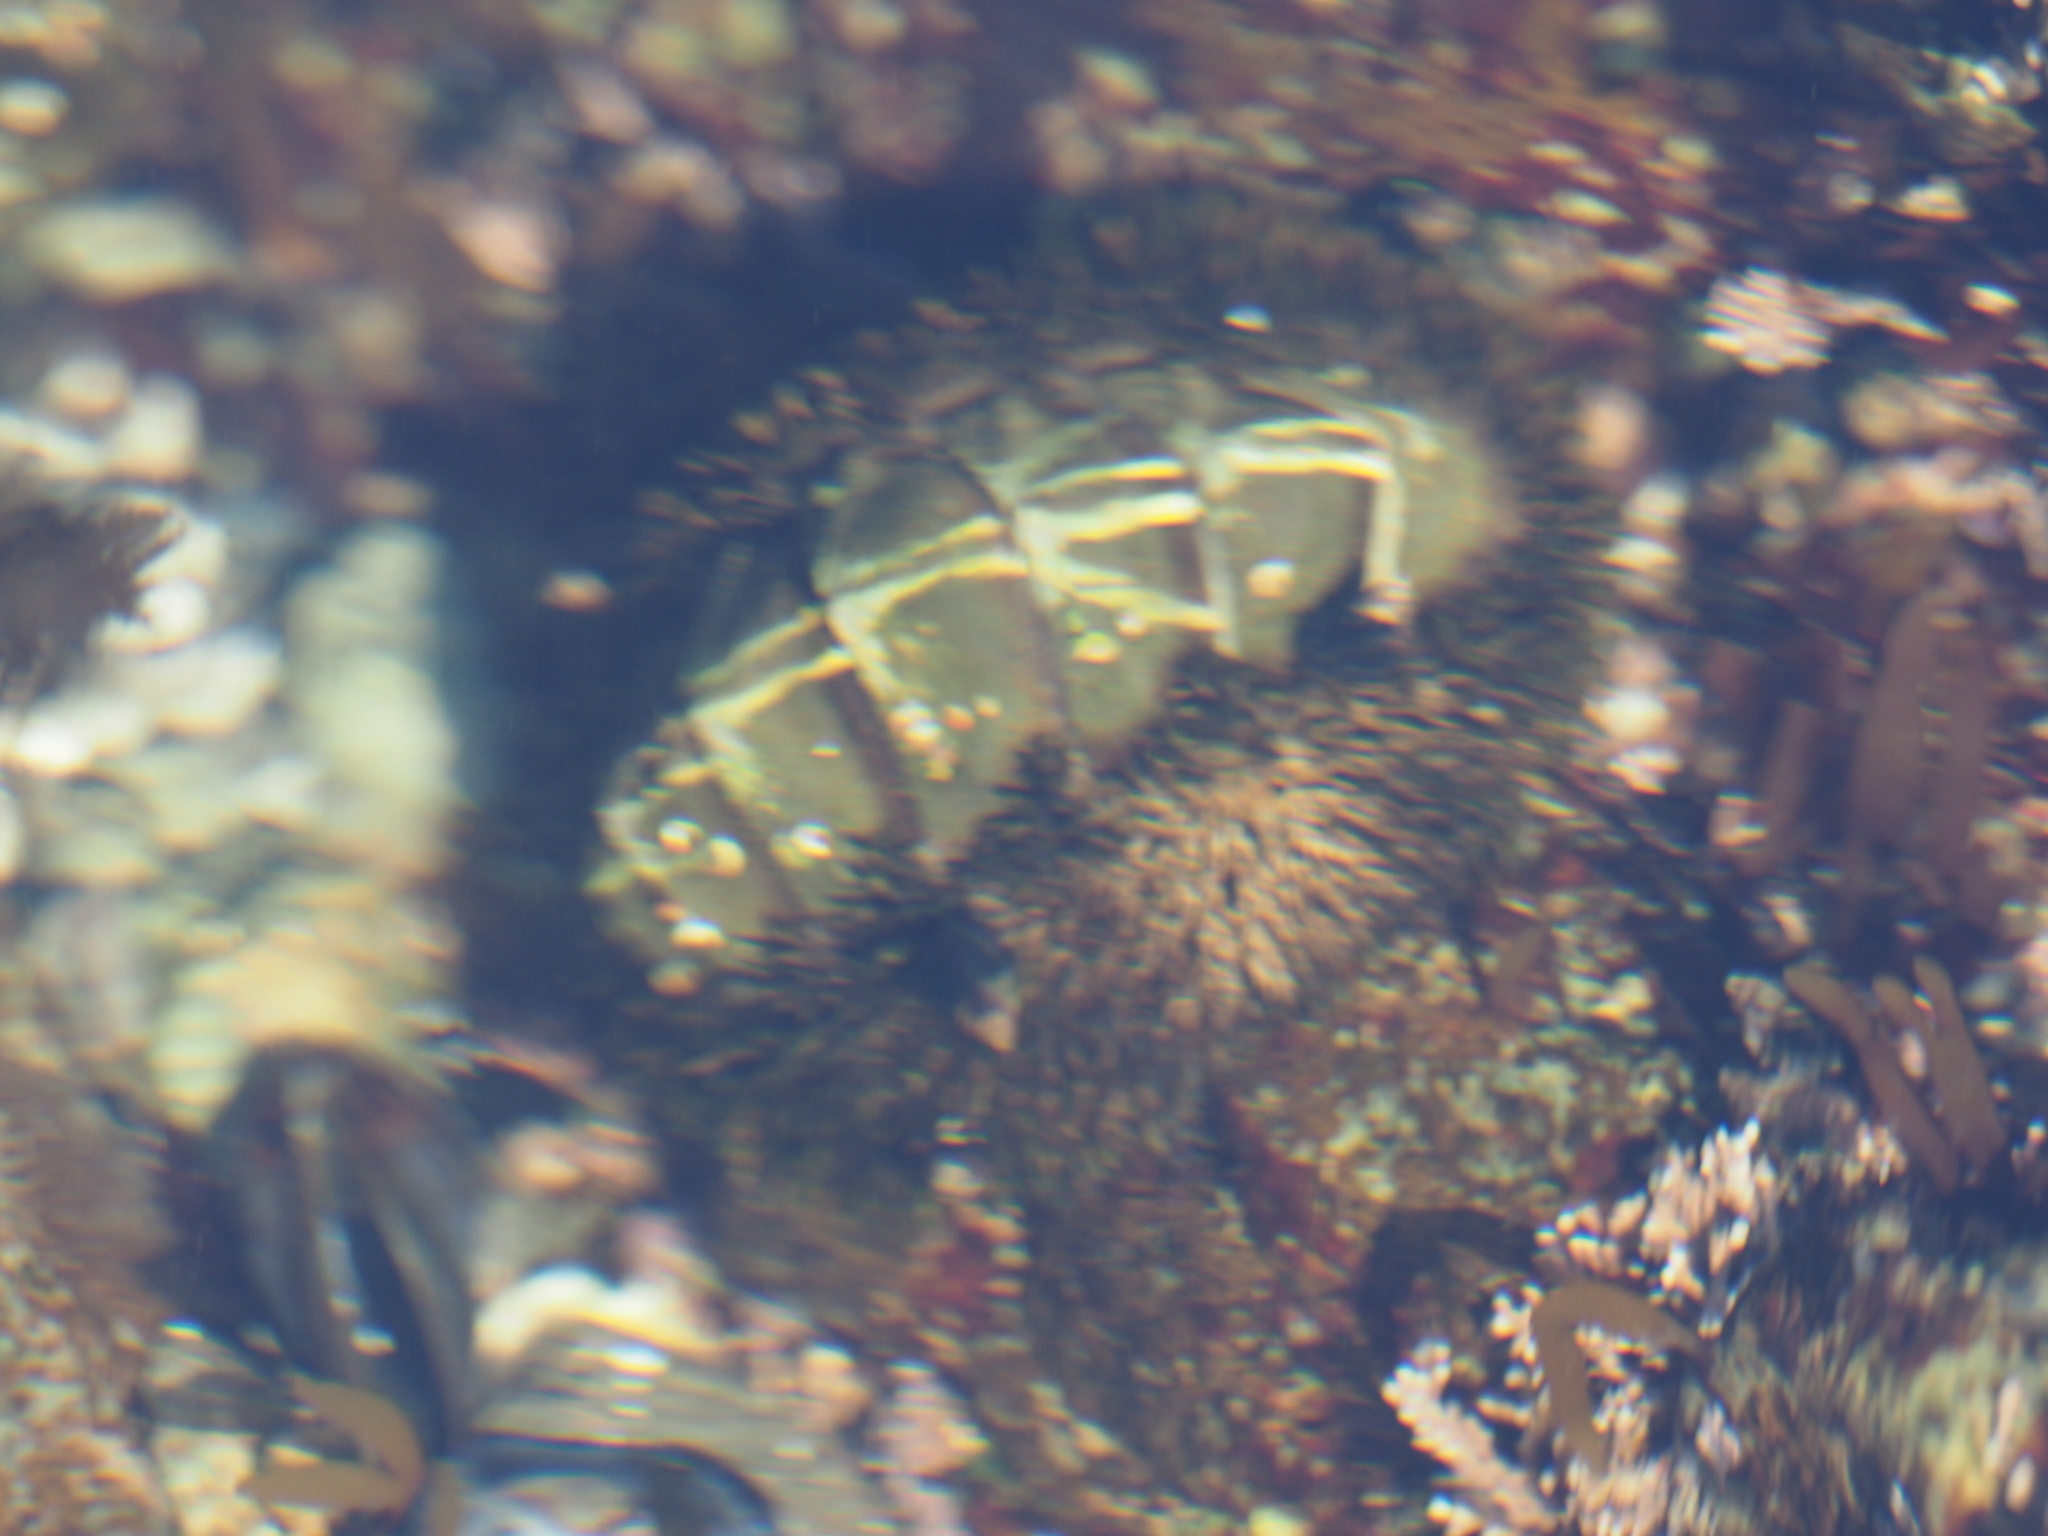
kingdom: Animalia
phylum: Mollusca
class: Polyplacophora
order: Chitonida
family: Mopaliidae
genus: Mopalia
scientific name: Mopalia muscosa
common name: Mossy chiton
